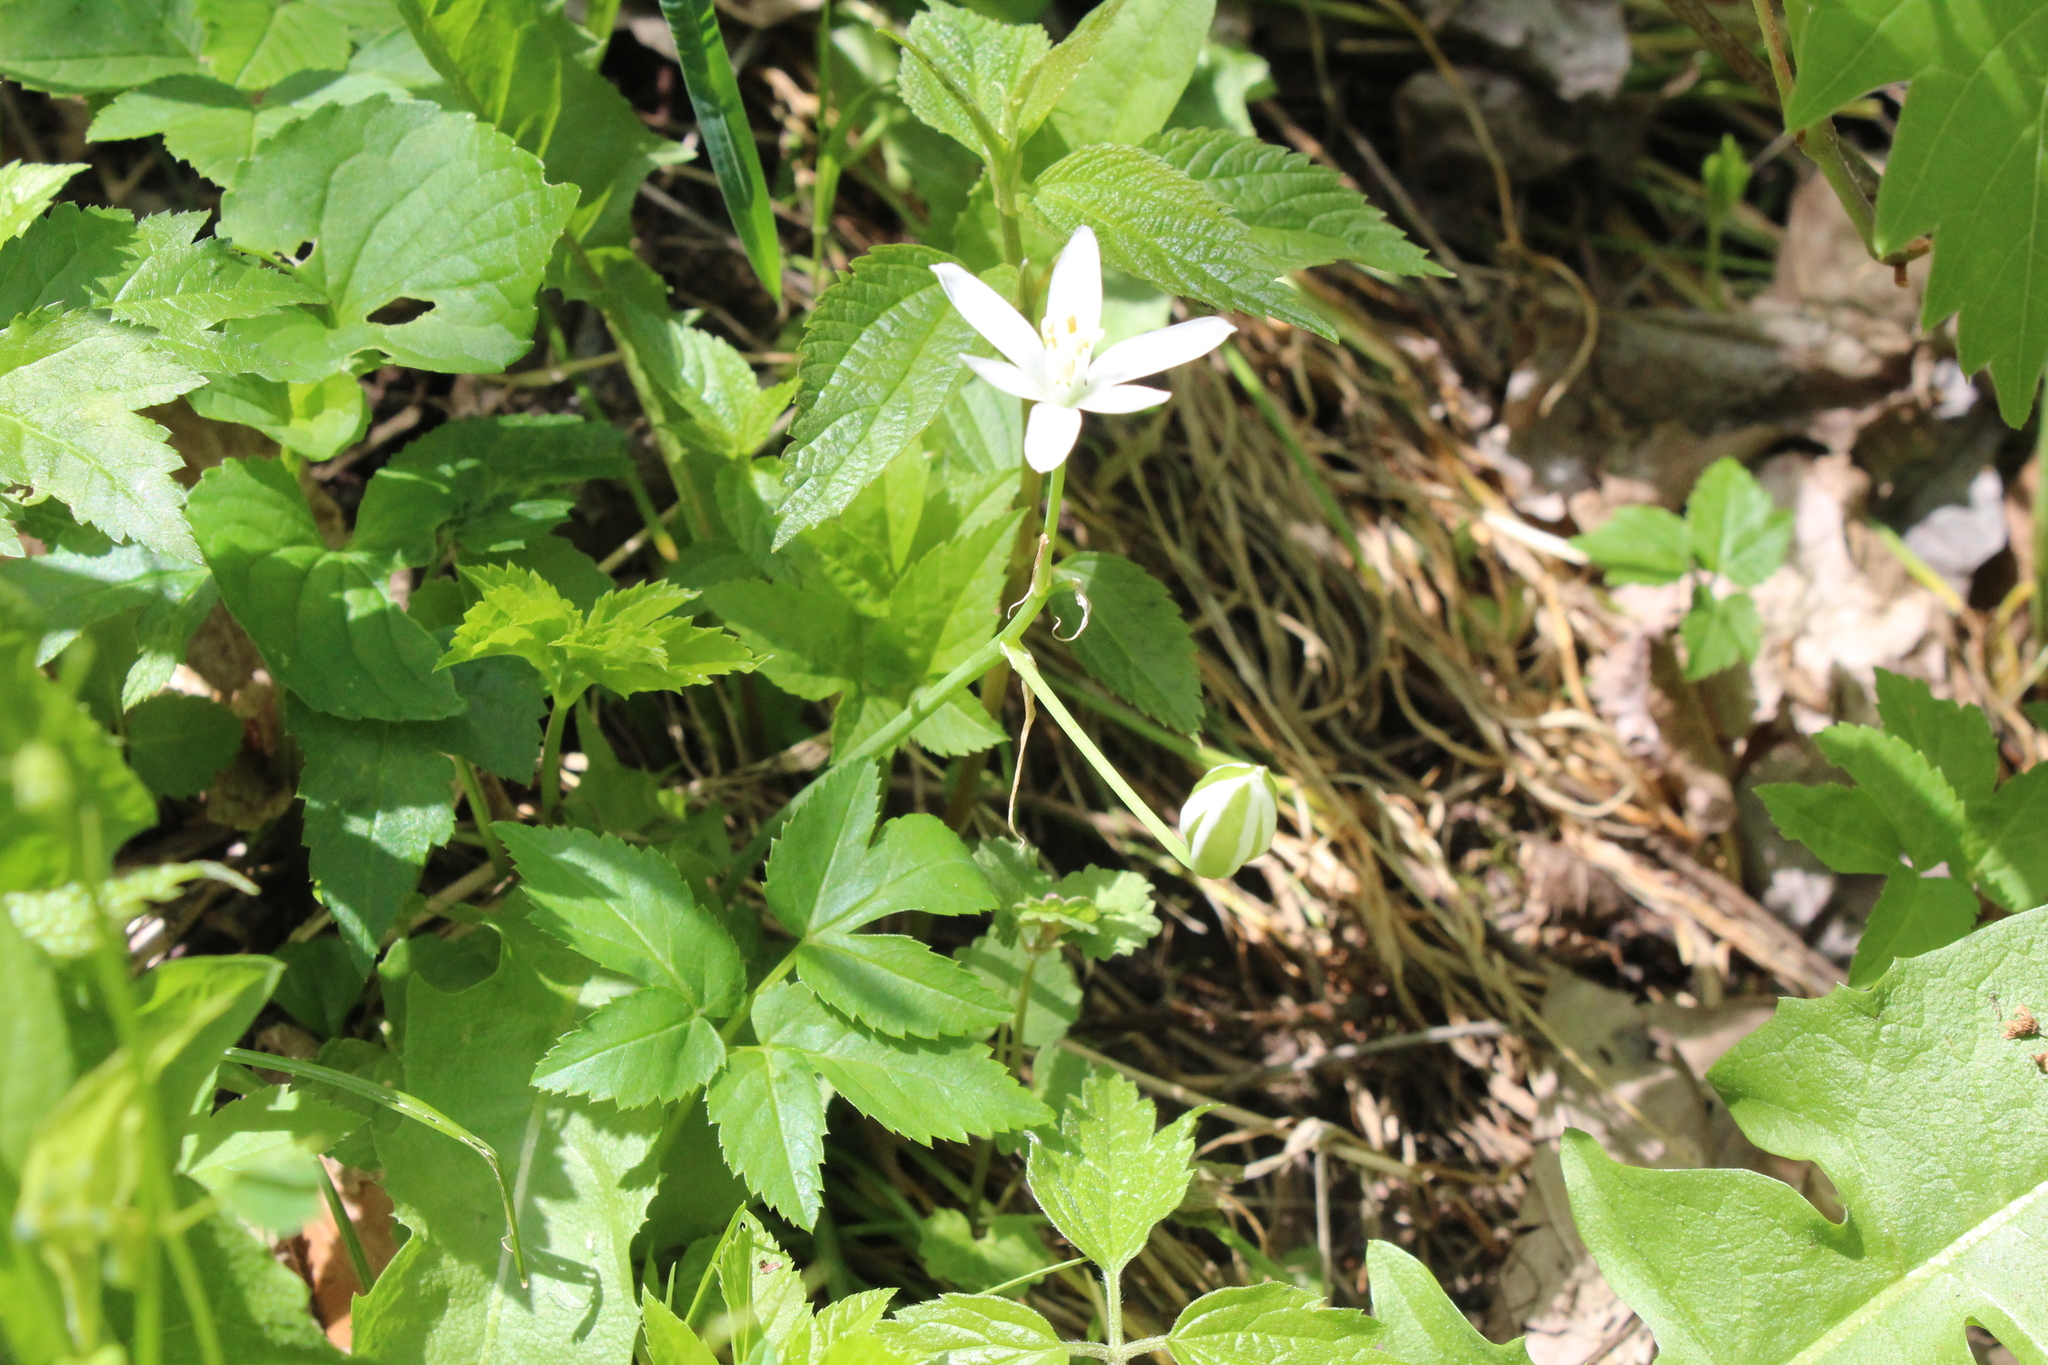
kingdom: Plantae
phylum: Tracheophyta
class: Liliopsida
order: Asparagales
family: Asparagaceae
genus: Ornithogalum
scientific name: Ornithogalum umbellatum
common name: Garden star-of-bethlehem
